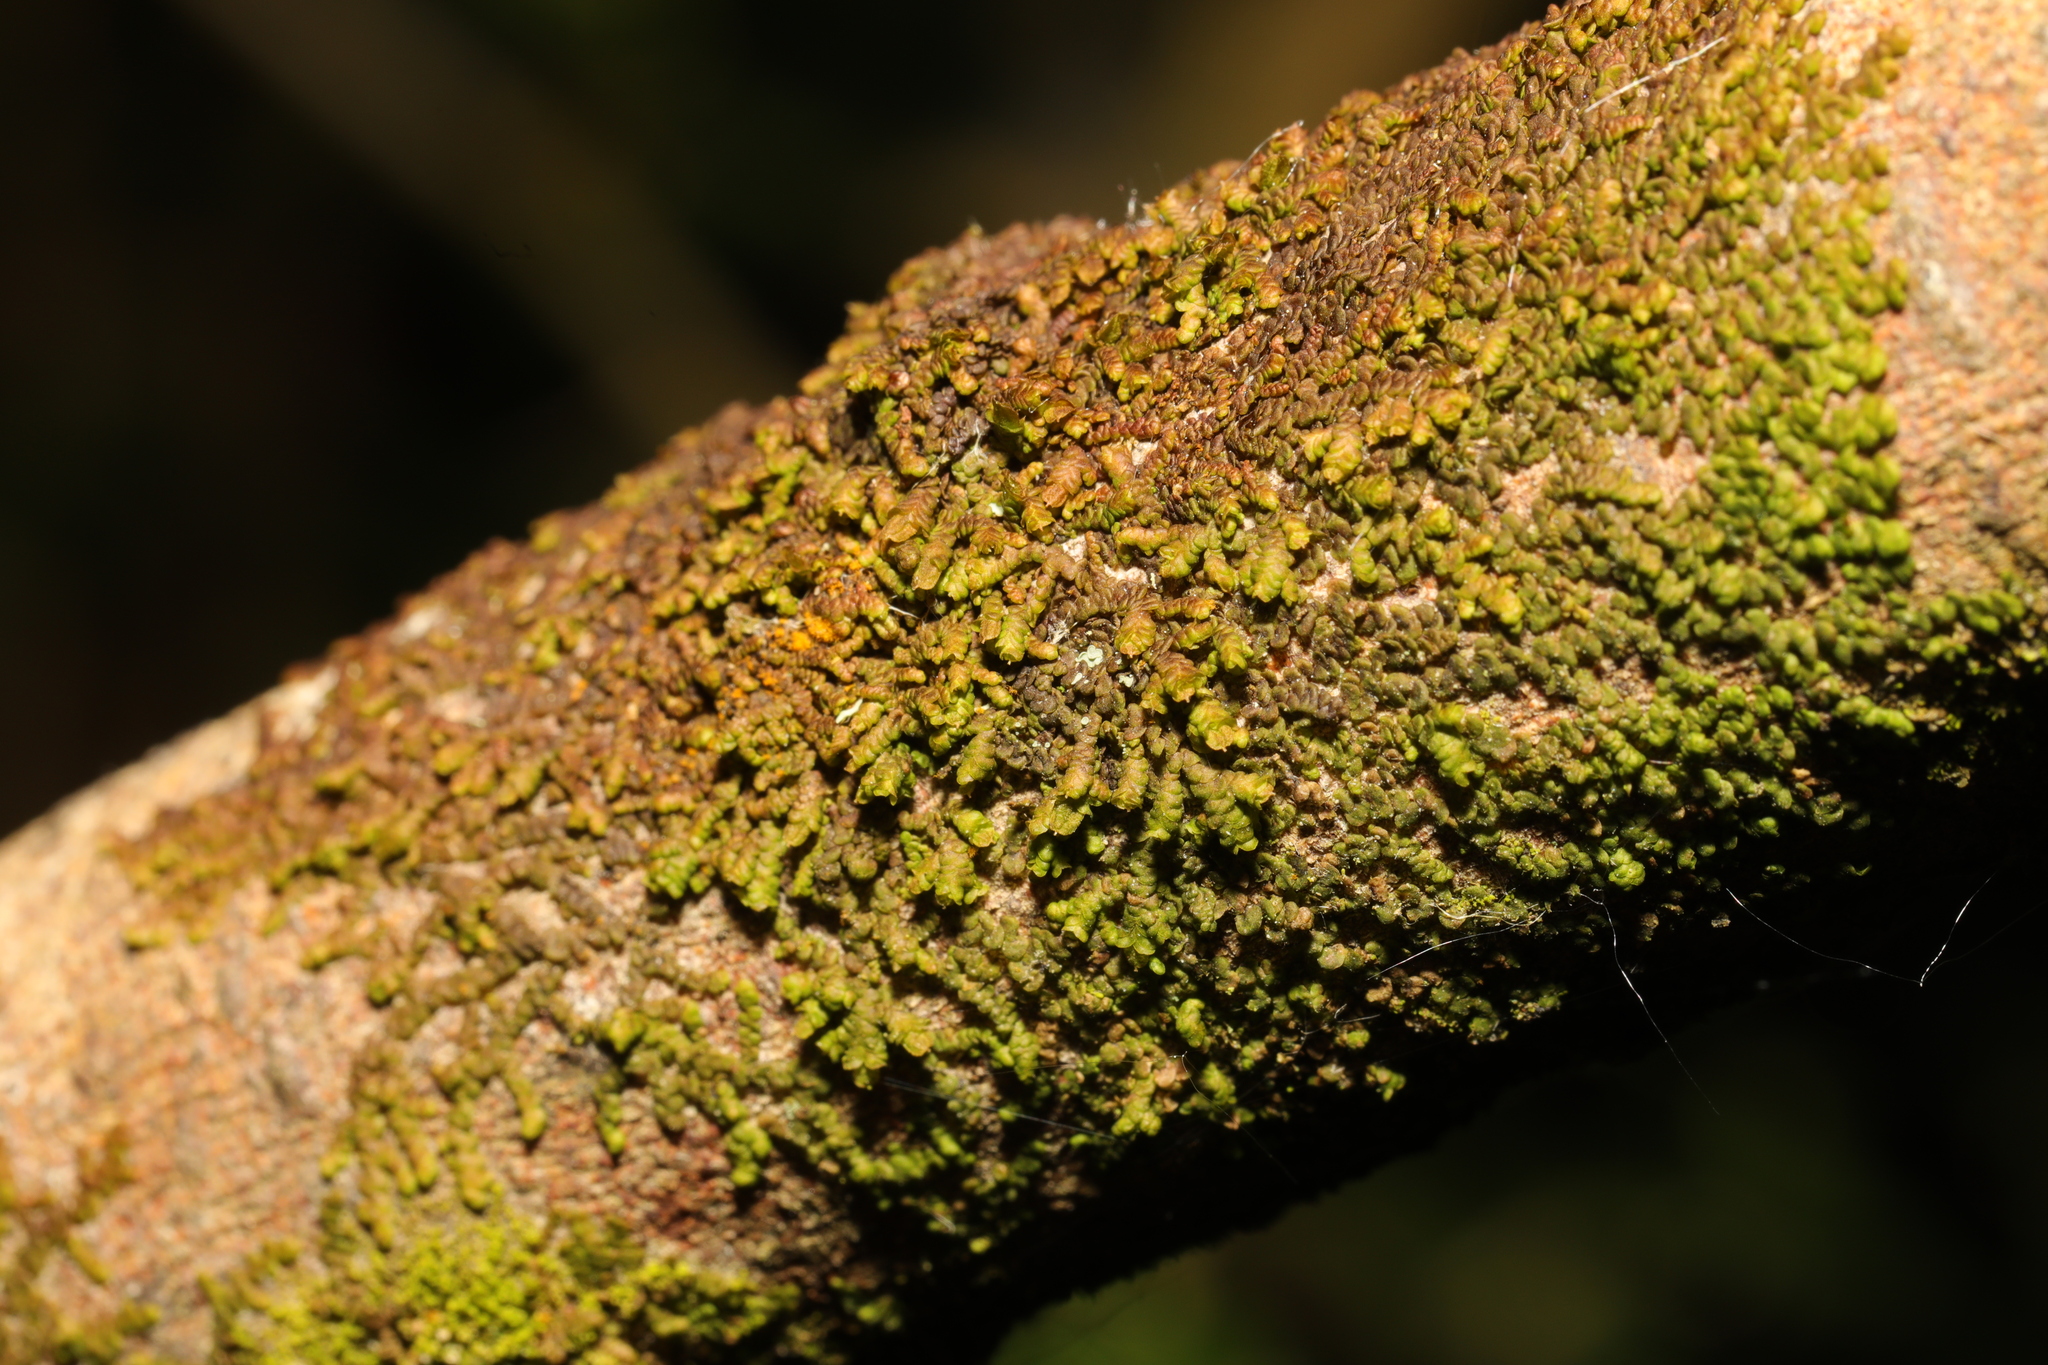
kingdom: Plantae
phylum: Marchantiophyta
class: Jungermanniopsida
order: Porellales
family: Frullaniaceae
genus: Frullania
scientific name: Frullania dilatata
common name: Dilated scalewort
